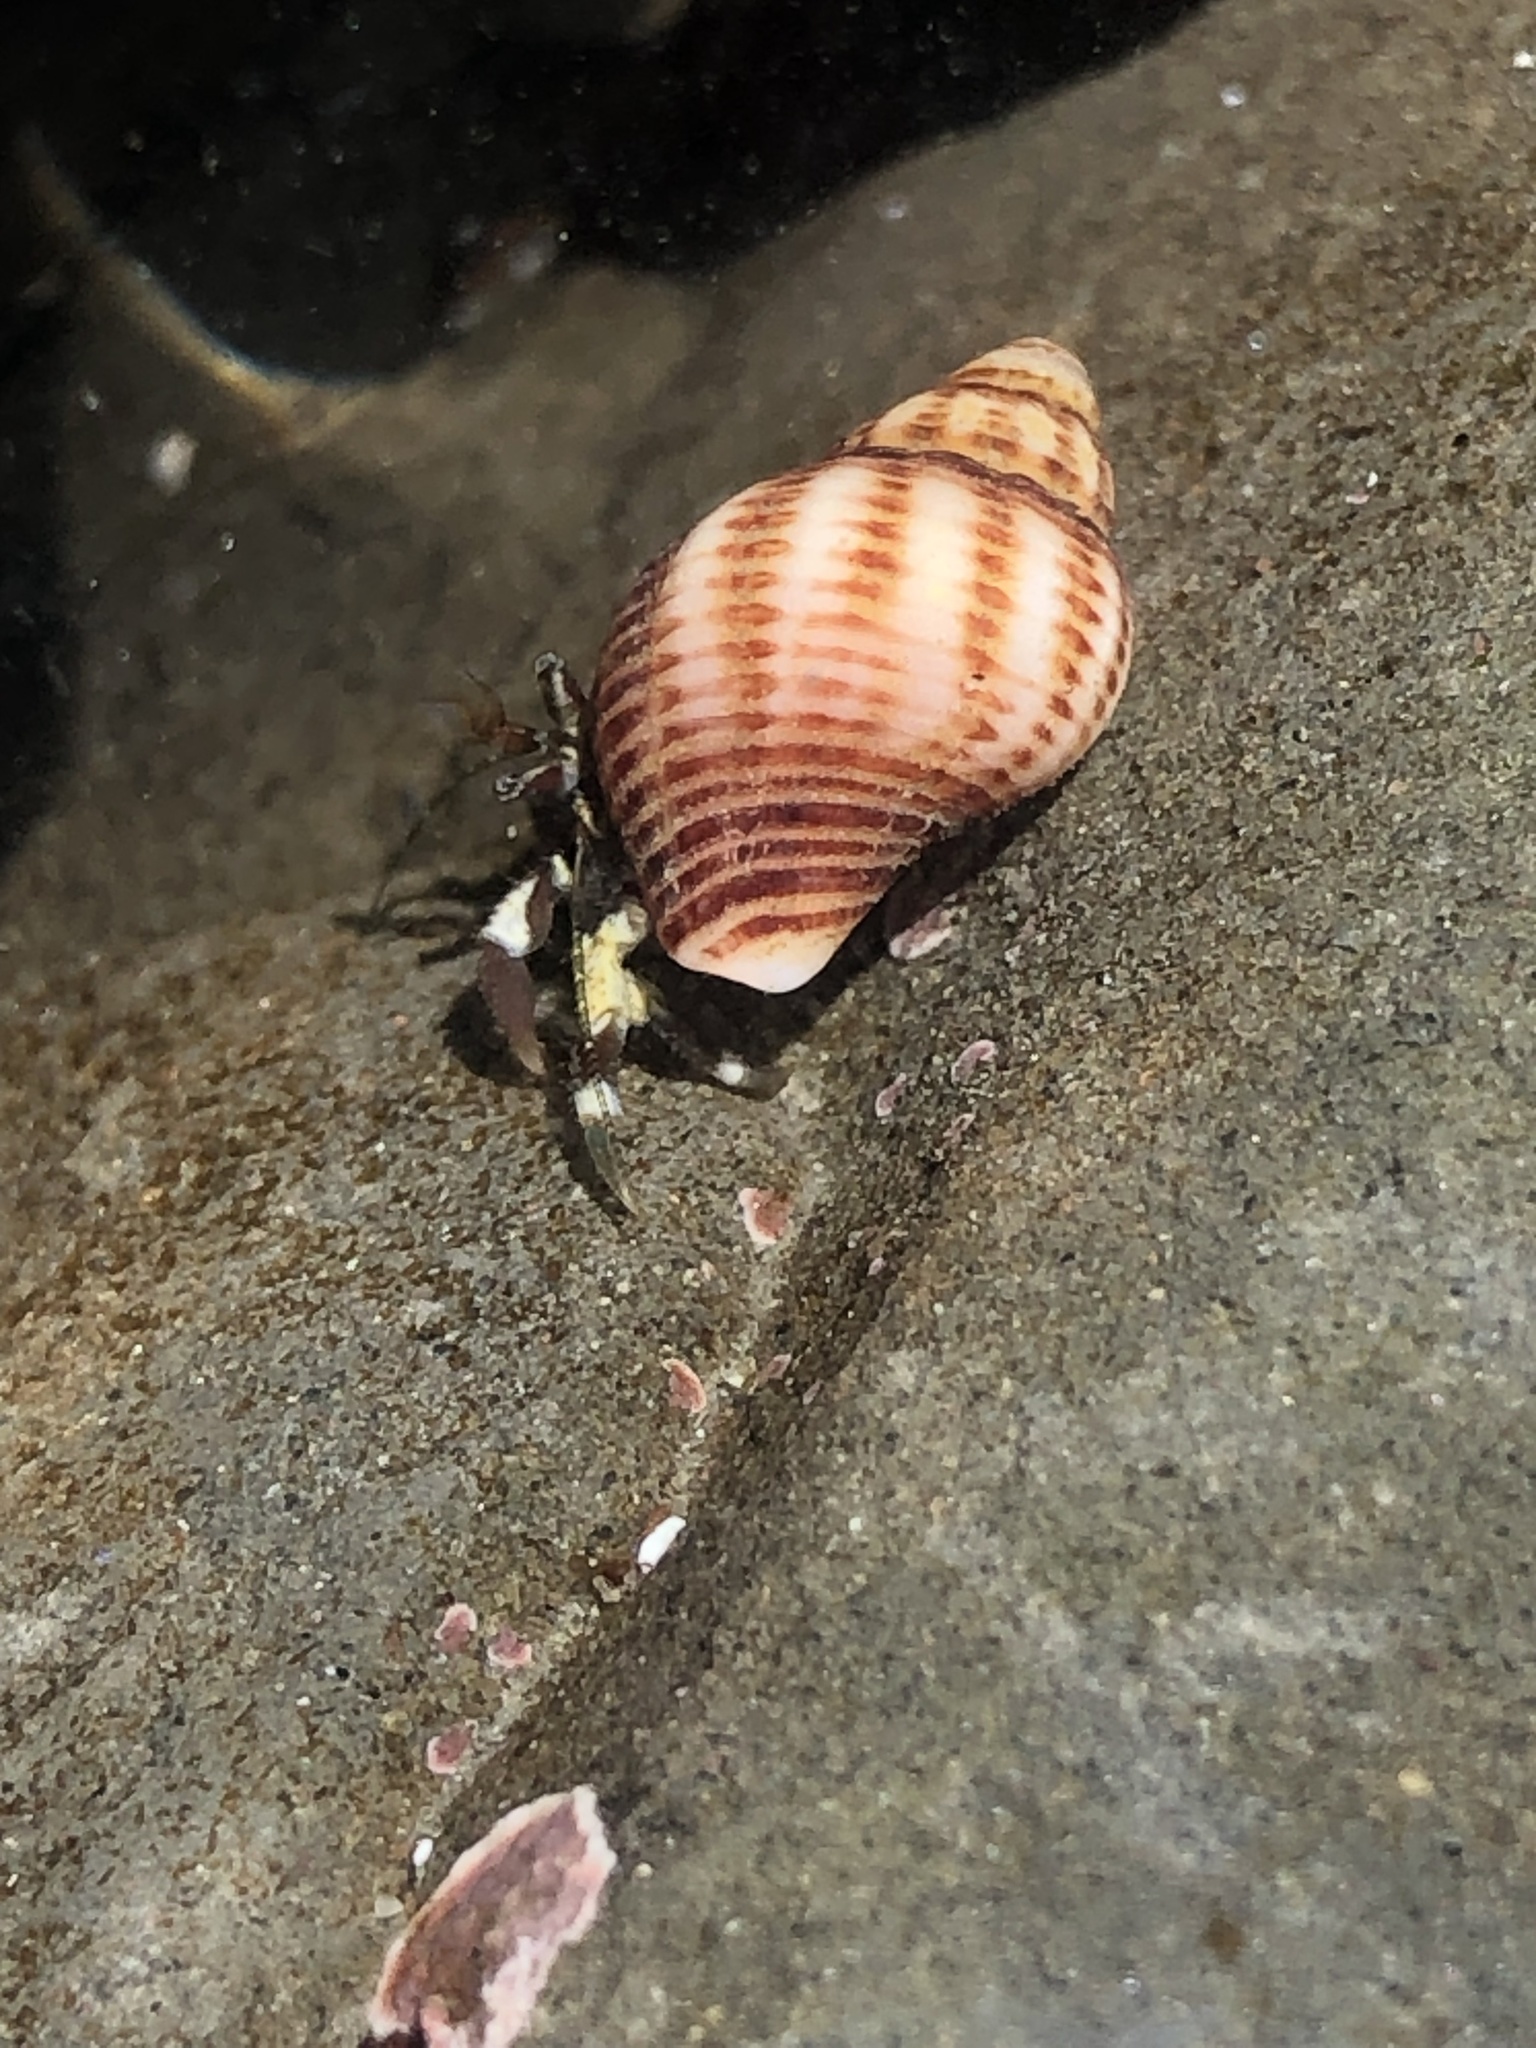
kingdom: Animalia
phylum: Arthropoda
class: Malacostraca
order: Decapoda
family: Paguridae
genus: Pagurus
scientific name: Pagurus hirsutiusculus
